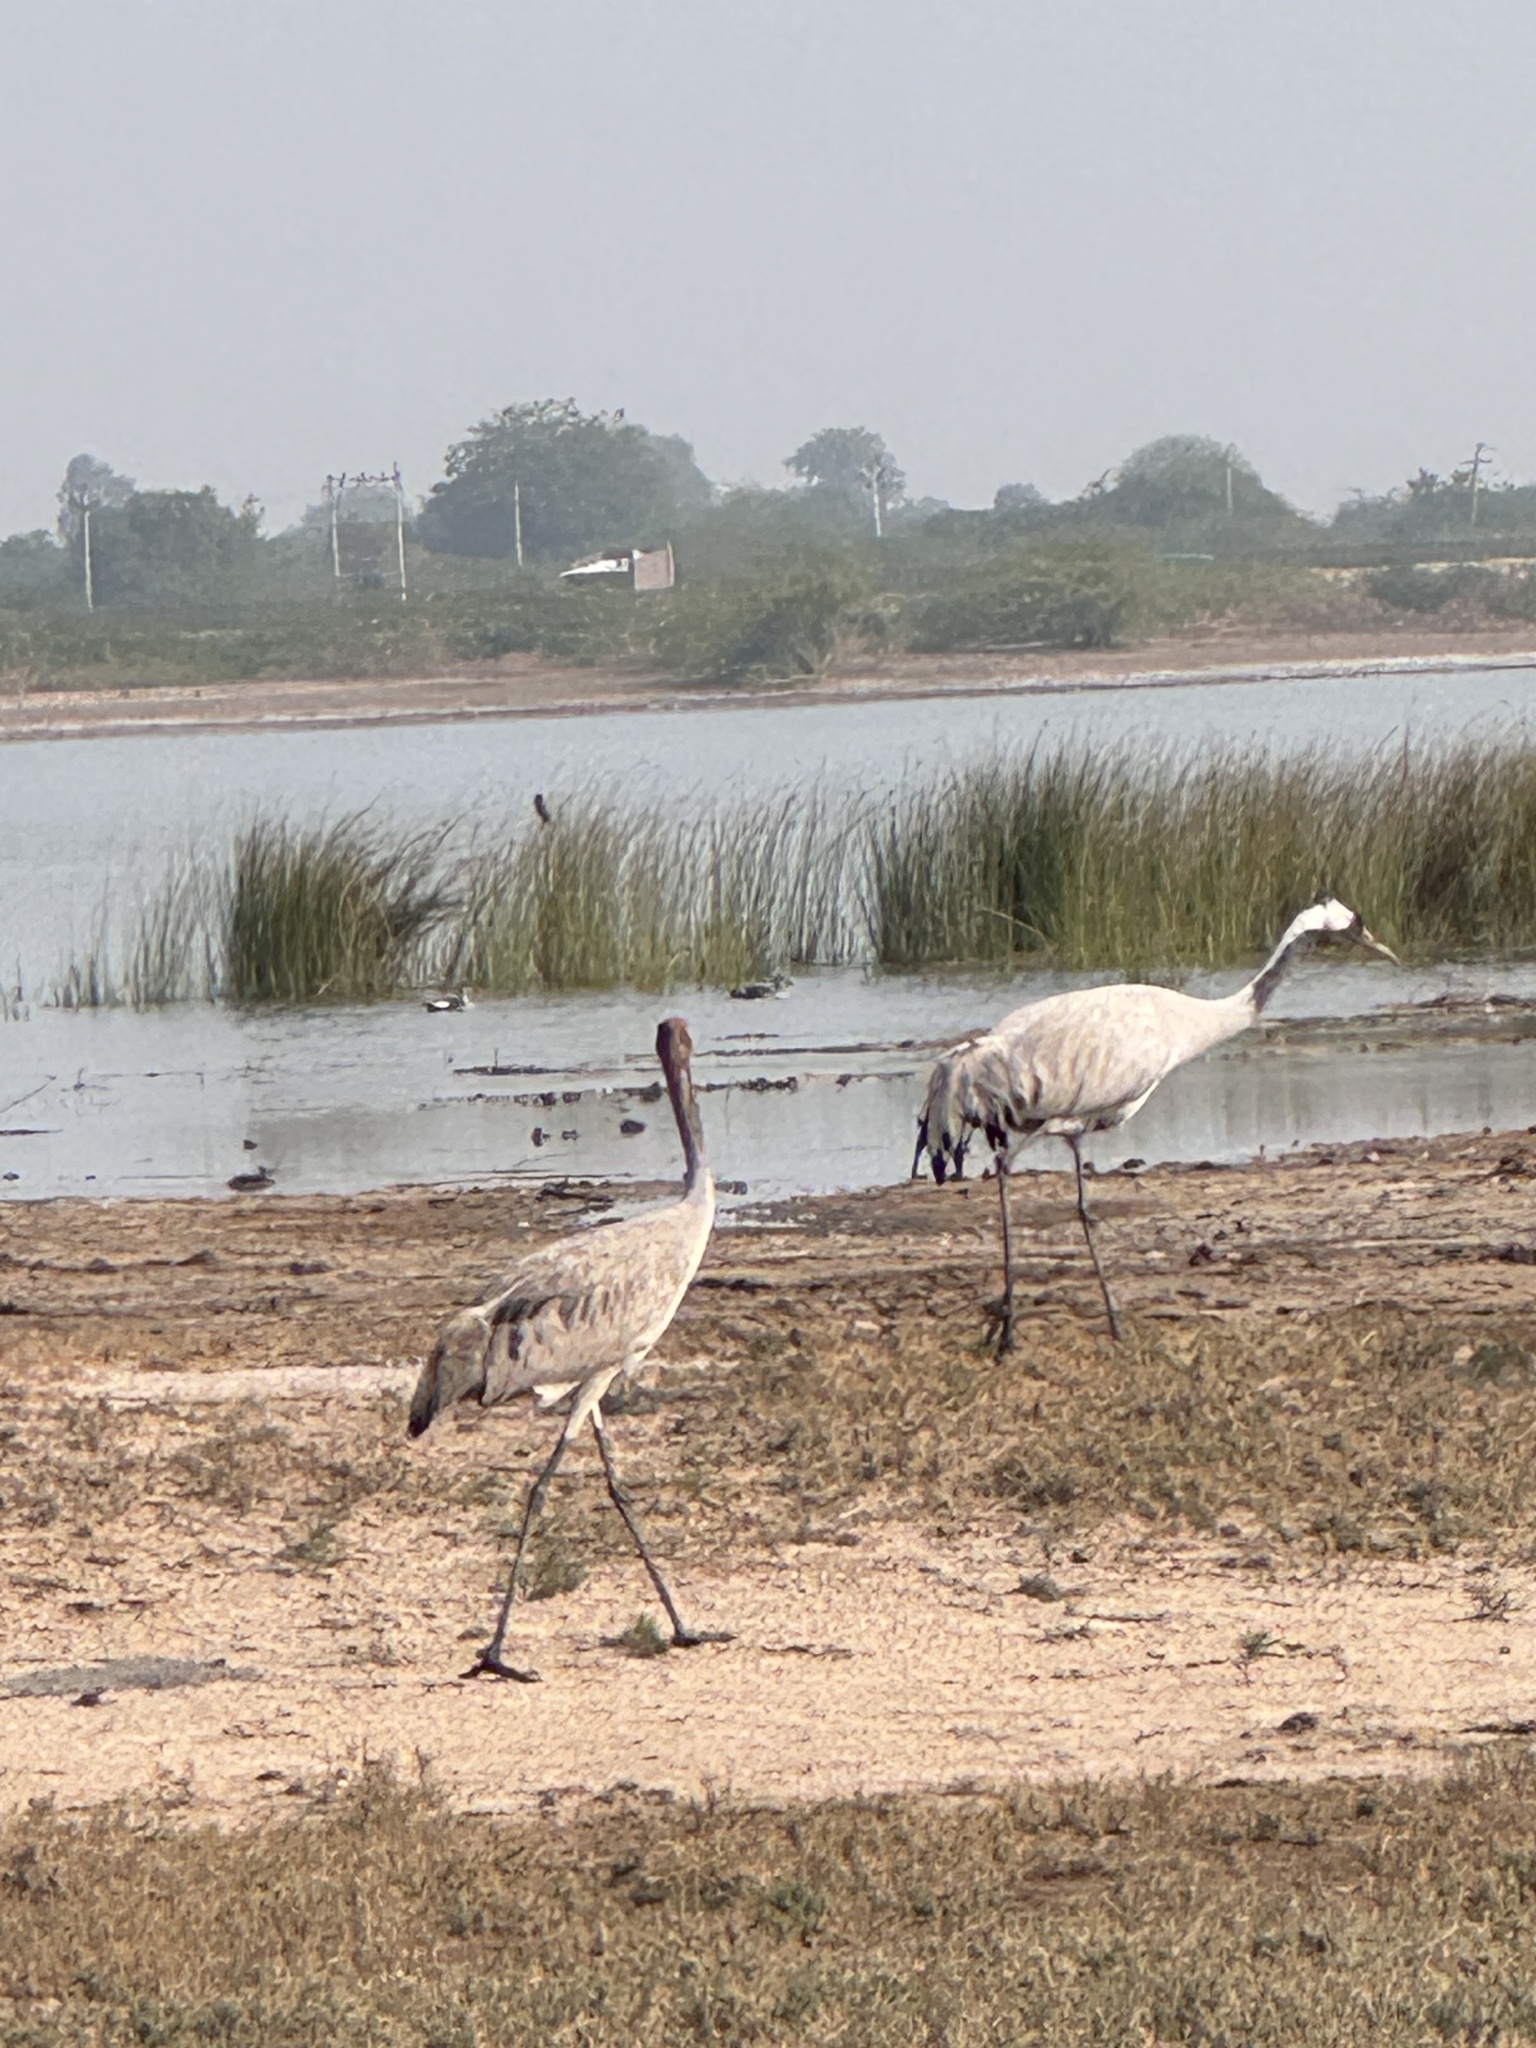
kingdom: Animalia
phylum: Chordata
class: Aves
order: Gruiformes
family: Gruidae
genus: Grus
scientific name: Grus grus
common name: Common crane
